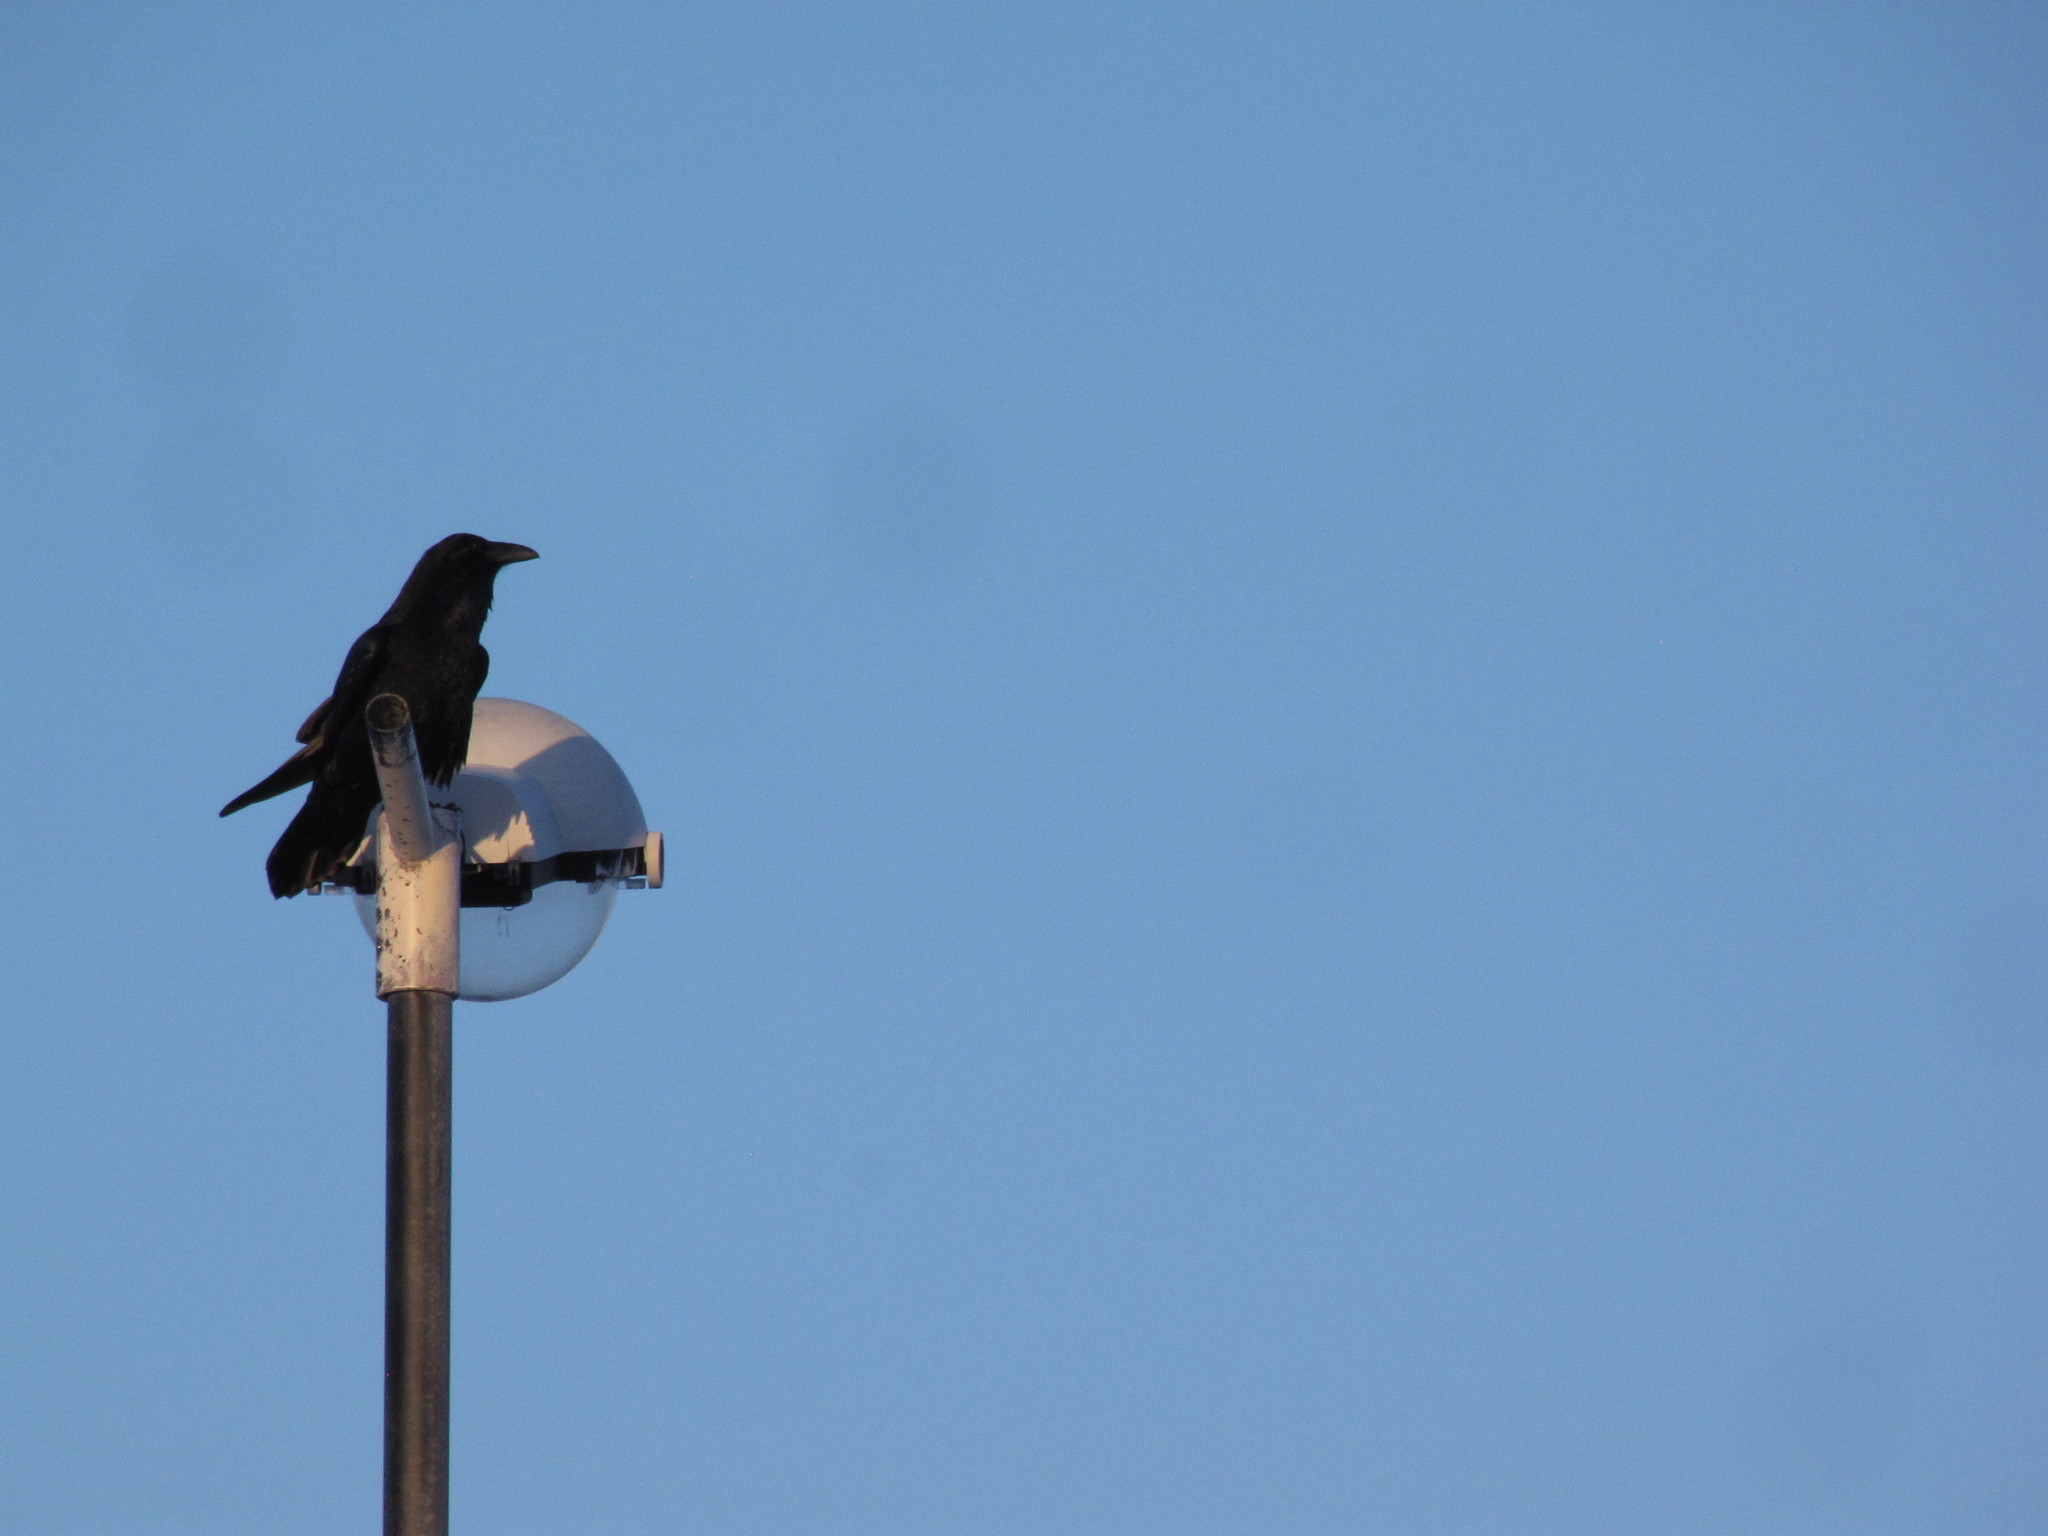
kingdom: Animalia
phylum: Chordata
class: Aves
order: Passeriformes
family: Corvidae
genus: Corvus
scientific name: Corvus corax
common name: Common raven
